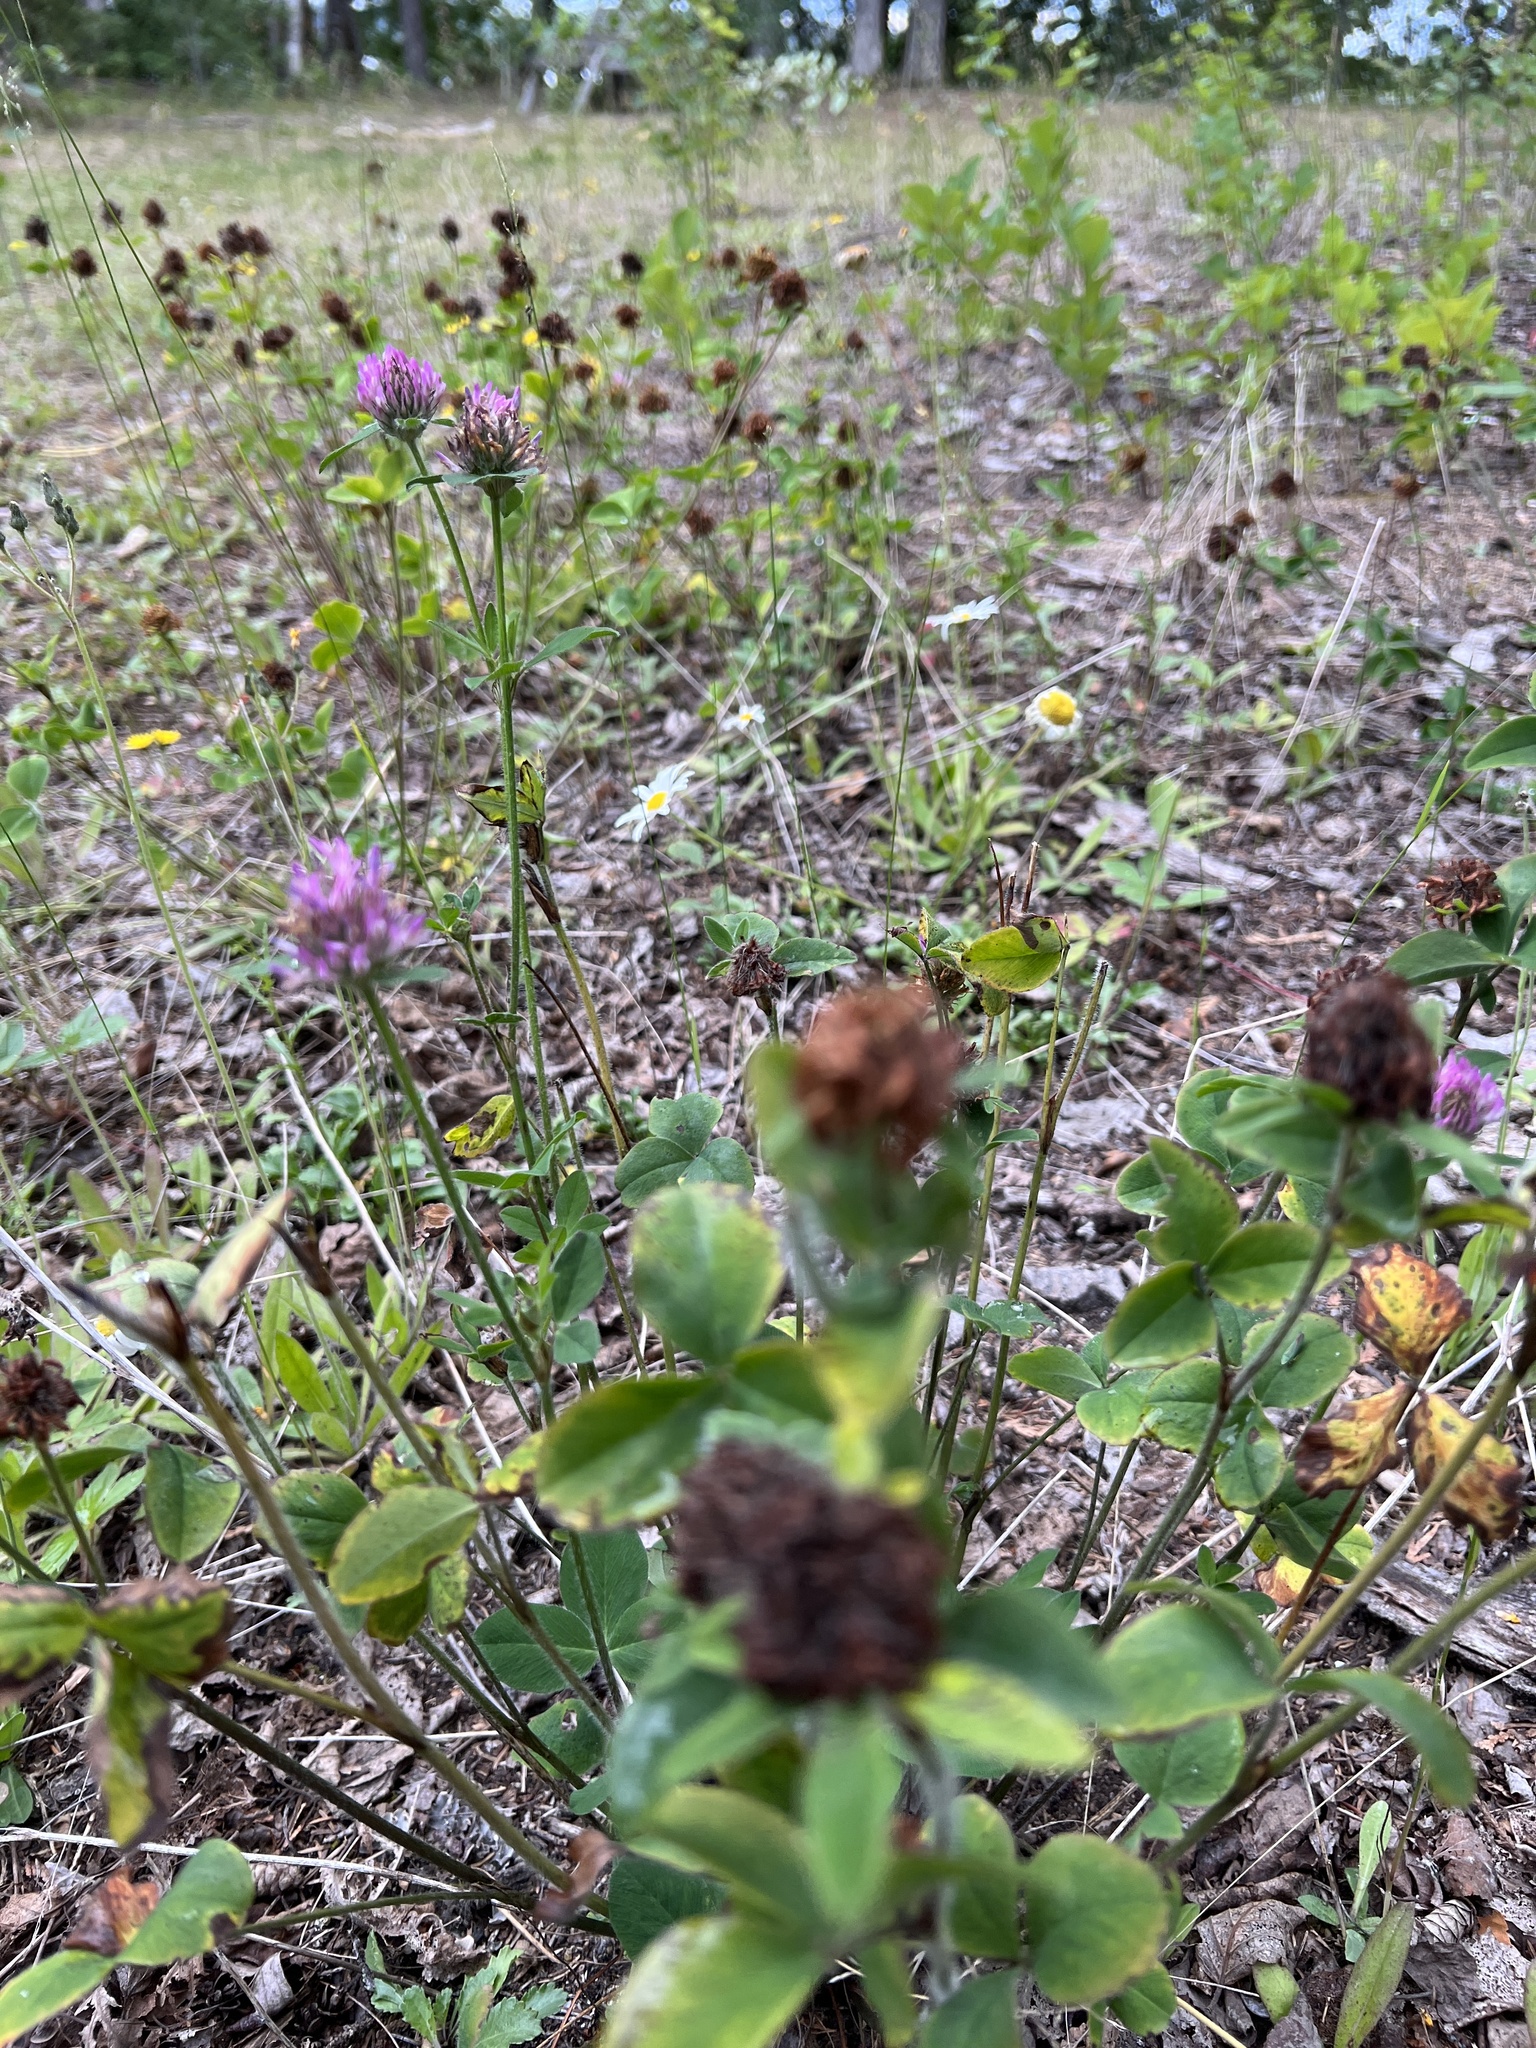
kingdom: Plantae
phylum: Tracheophyta
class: Magnoliopsida
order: Fabales
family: Fabaceae
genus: Trifolium
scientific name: Trifolium pratense
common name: Red clover
